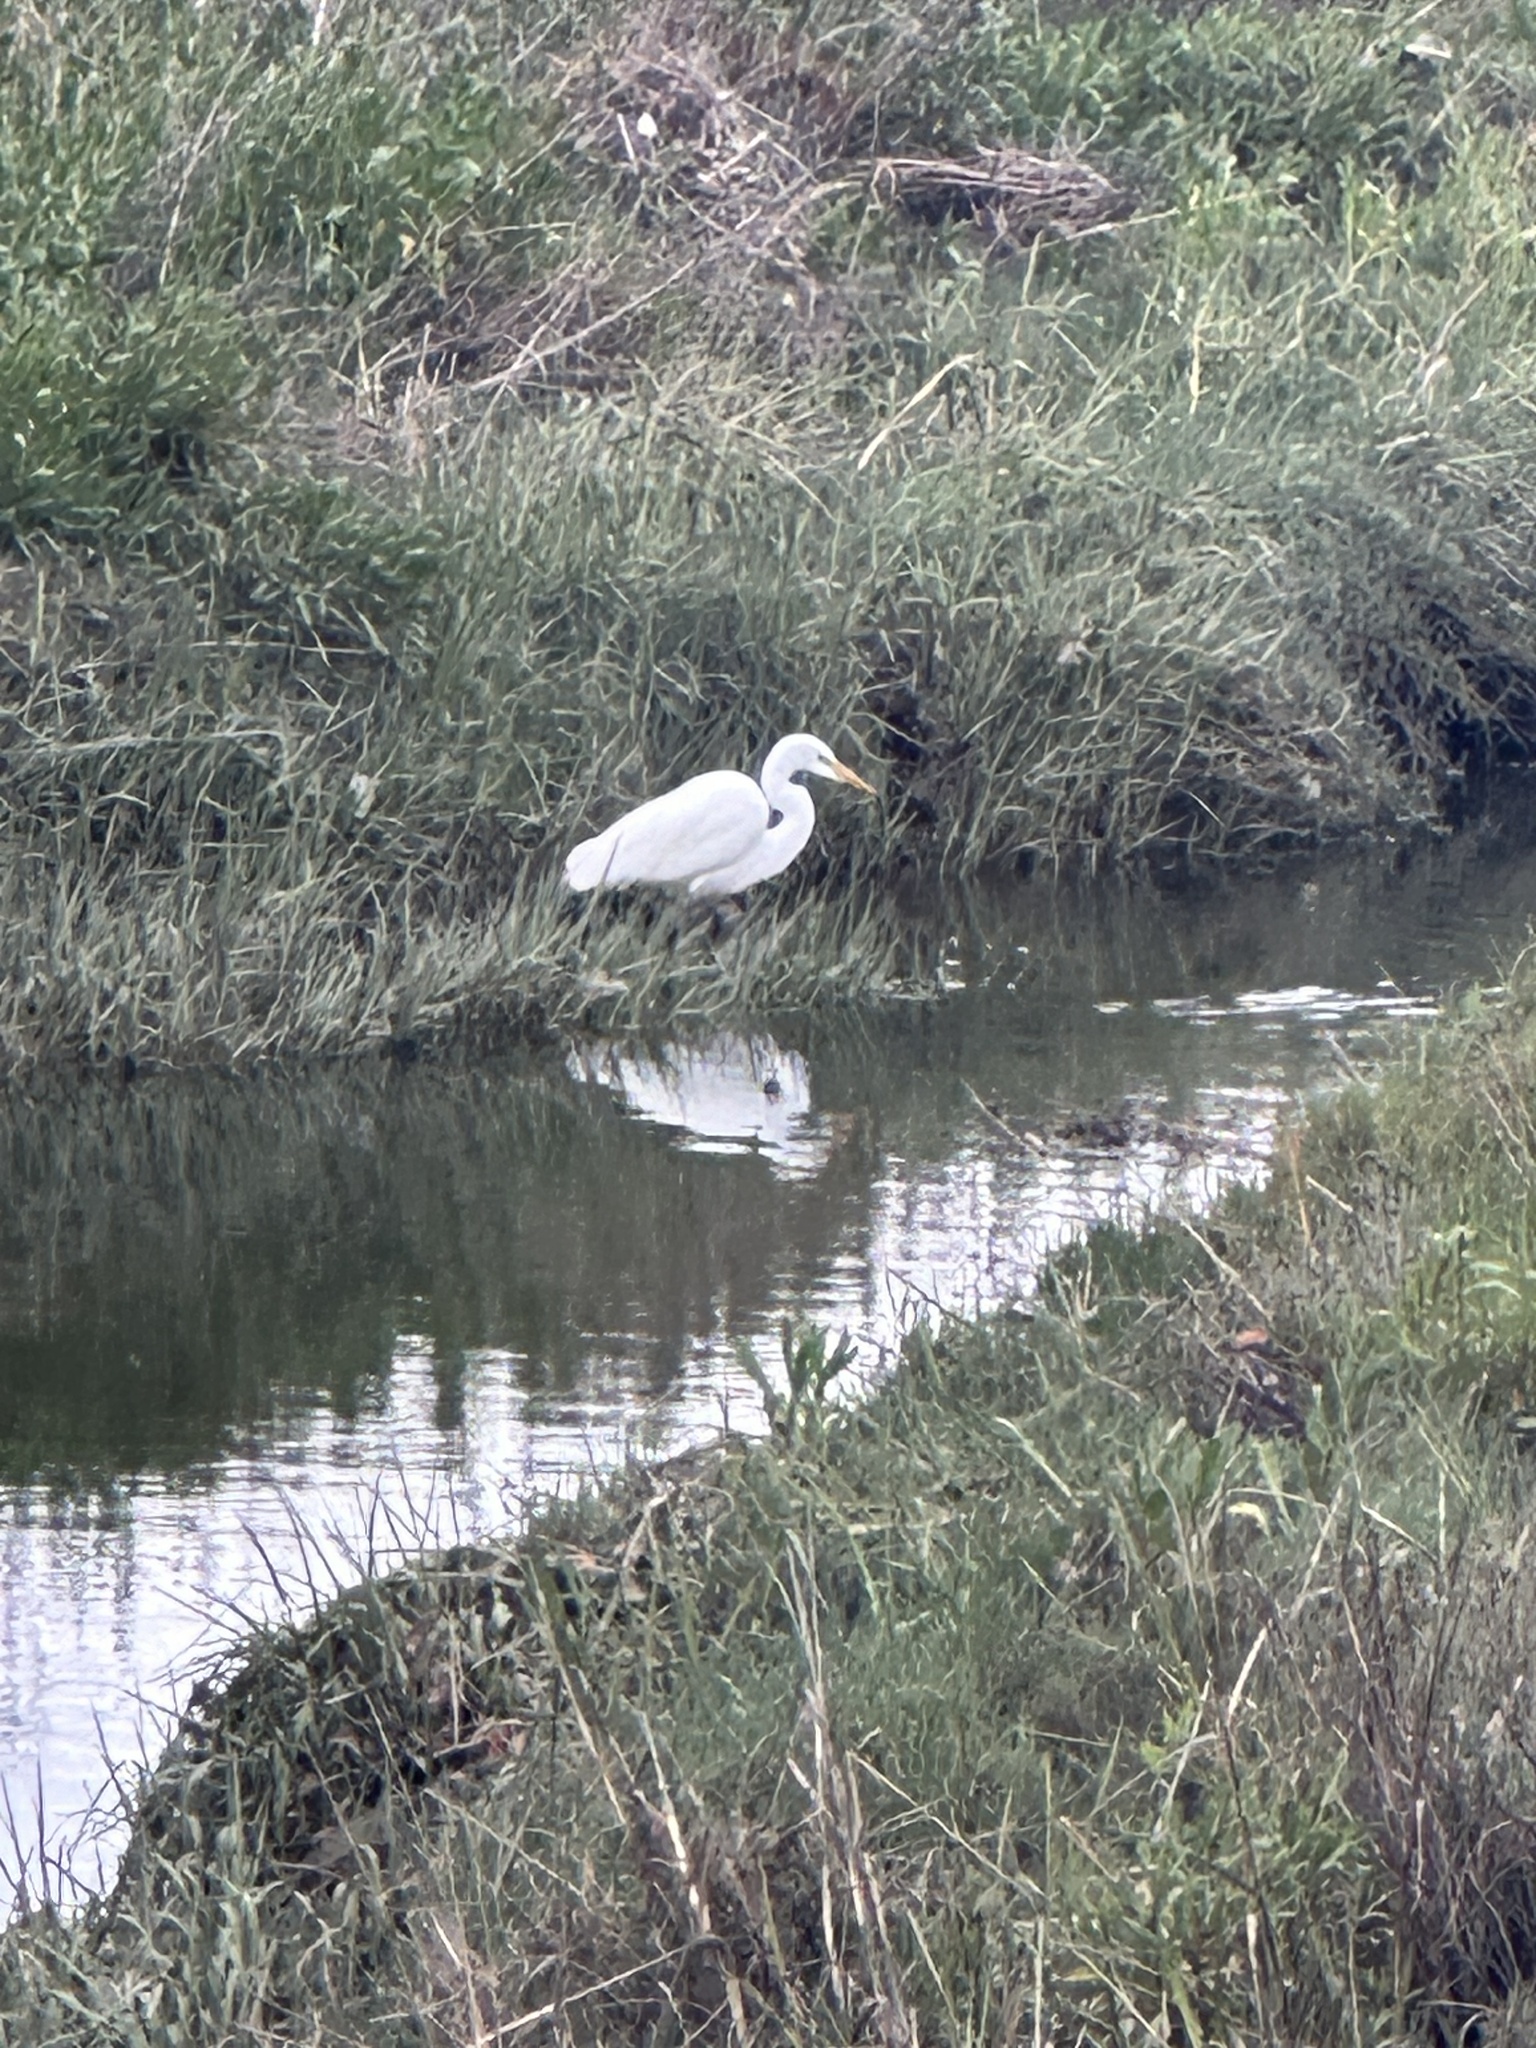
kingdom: Animalia
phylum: Chordata
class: Aves
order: Pelecaniformes
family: Ardeidae
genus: Ardea
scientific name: Ardea alba
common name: Great egret
